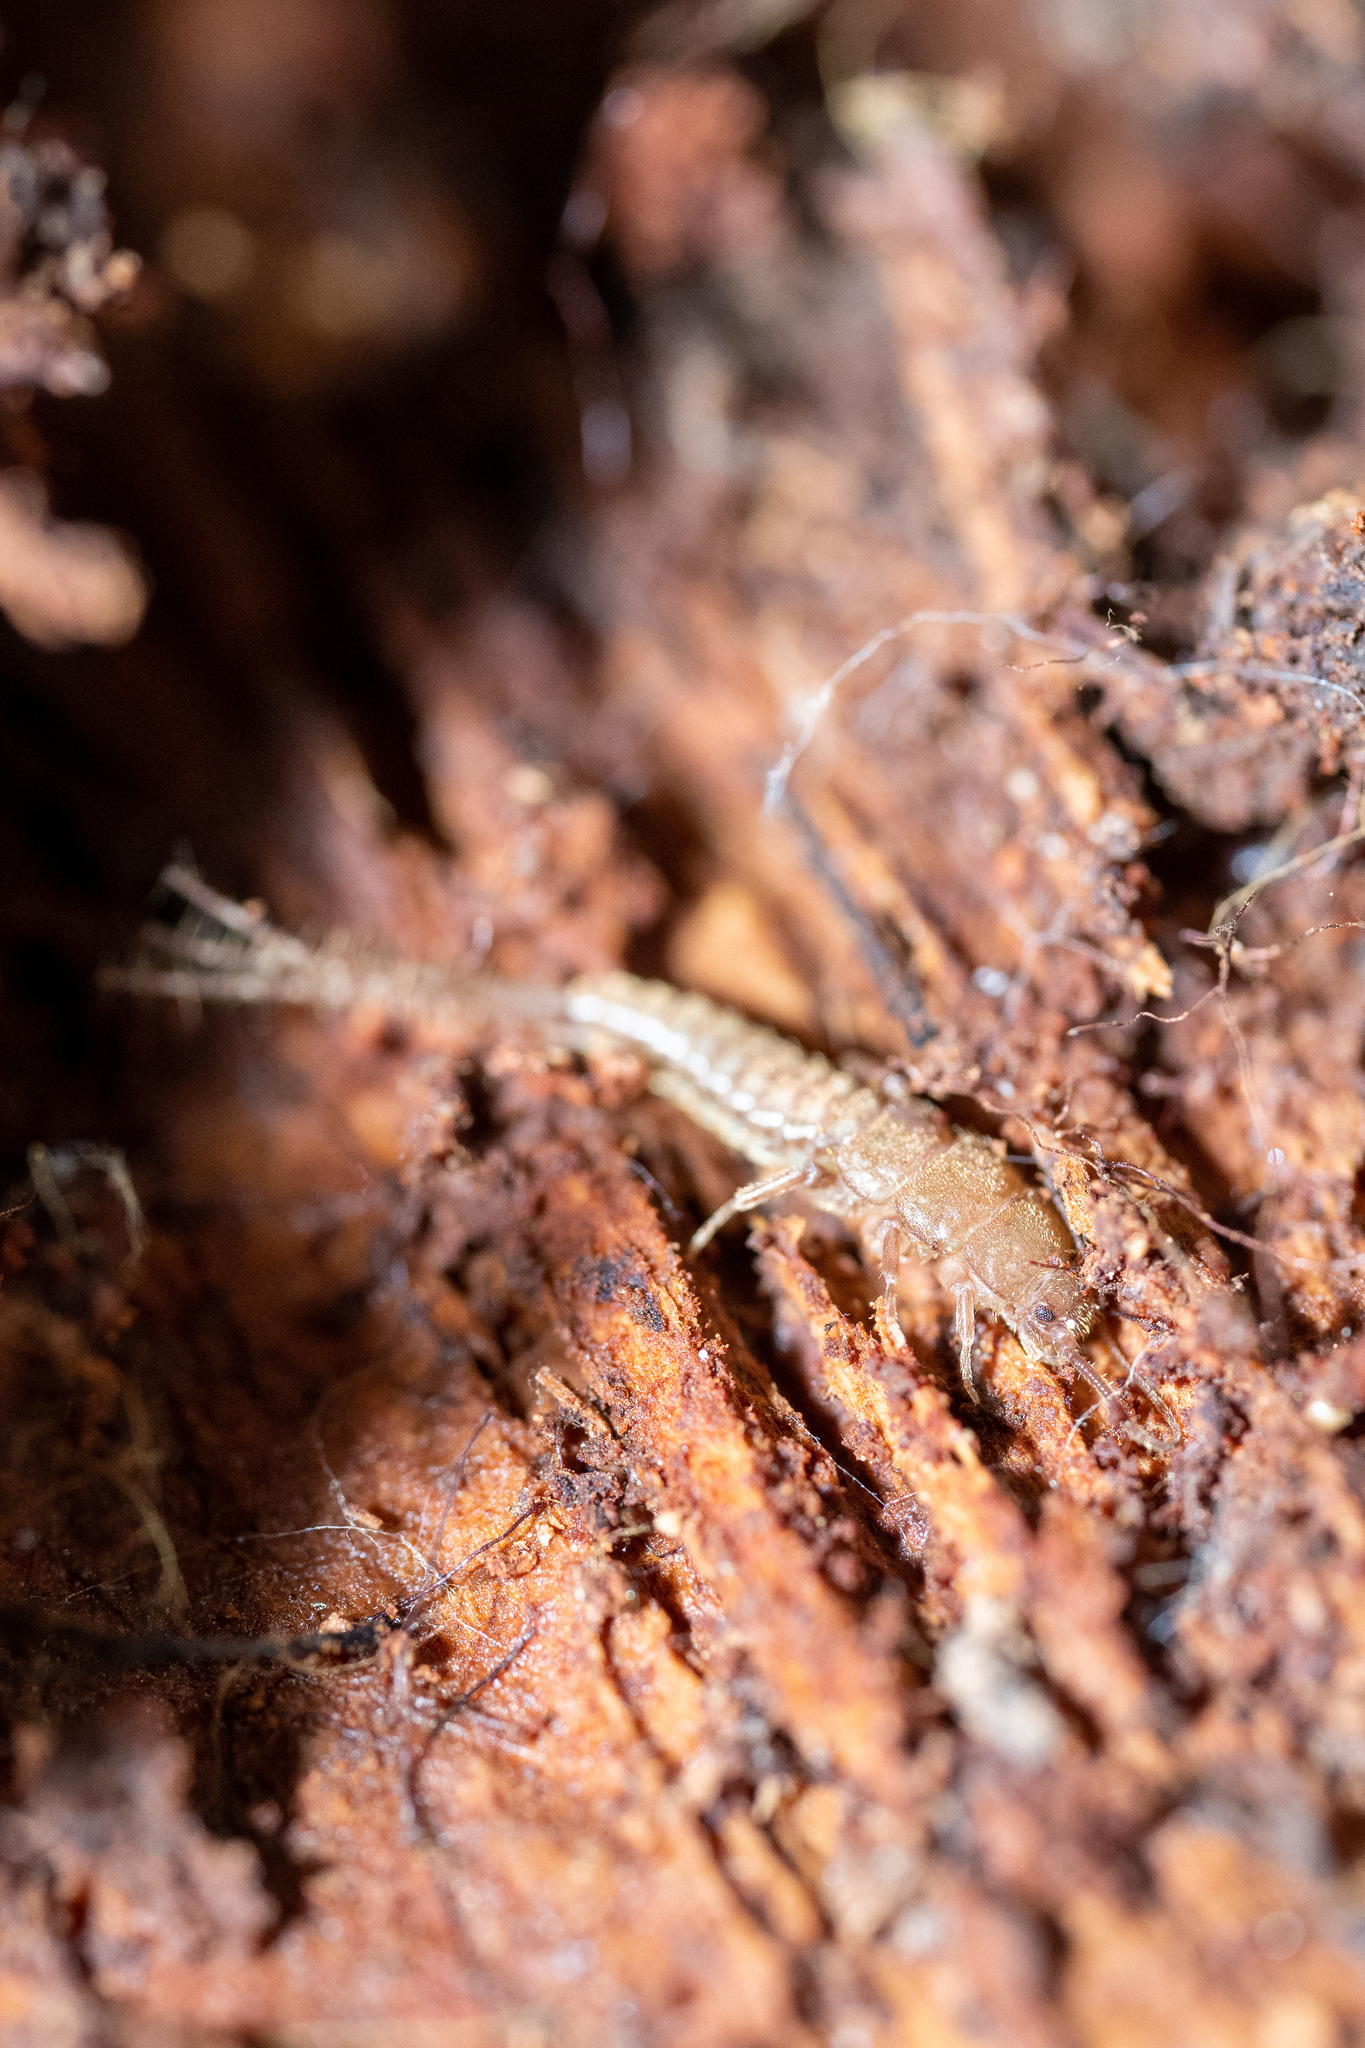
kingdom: Animalia
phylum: Arthropoda
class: Insecta
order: Zygentoma
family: Lepidotrichidae
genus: Tricholepidion
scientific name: Tricholepidion gertschi
